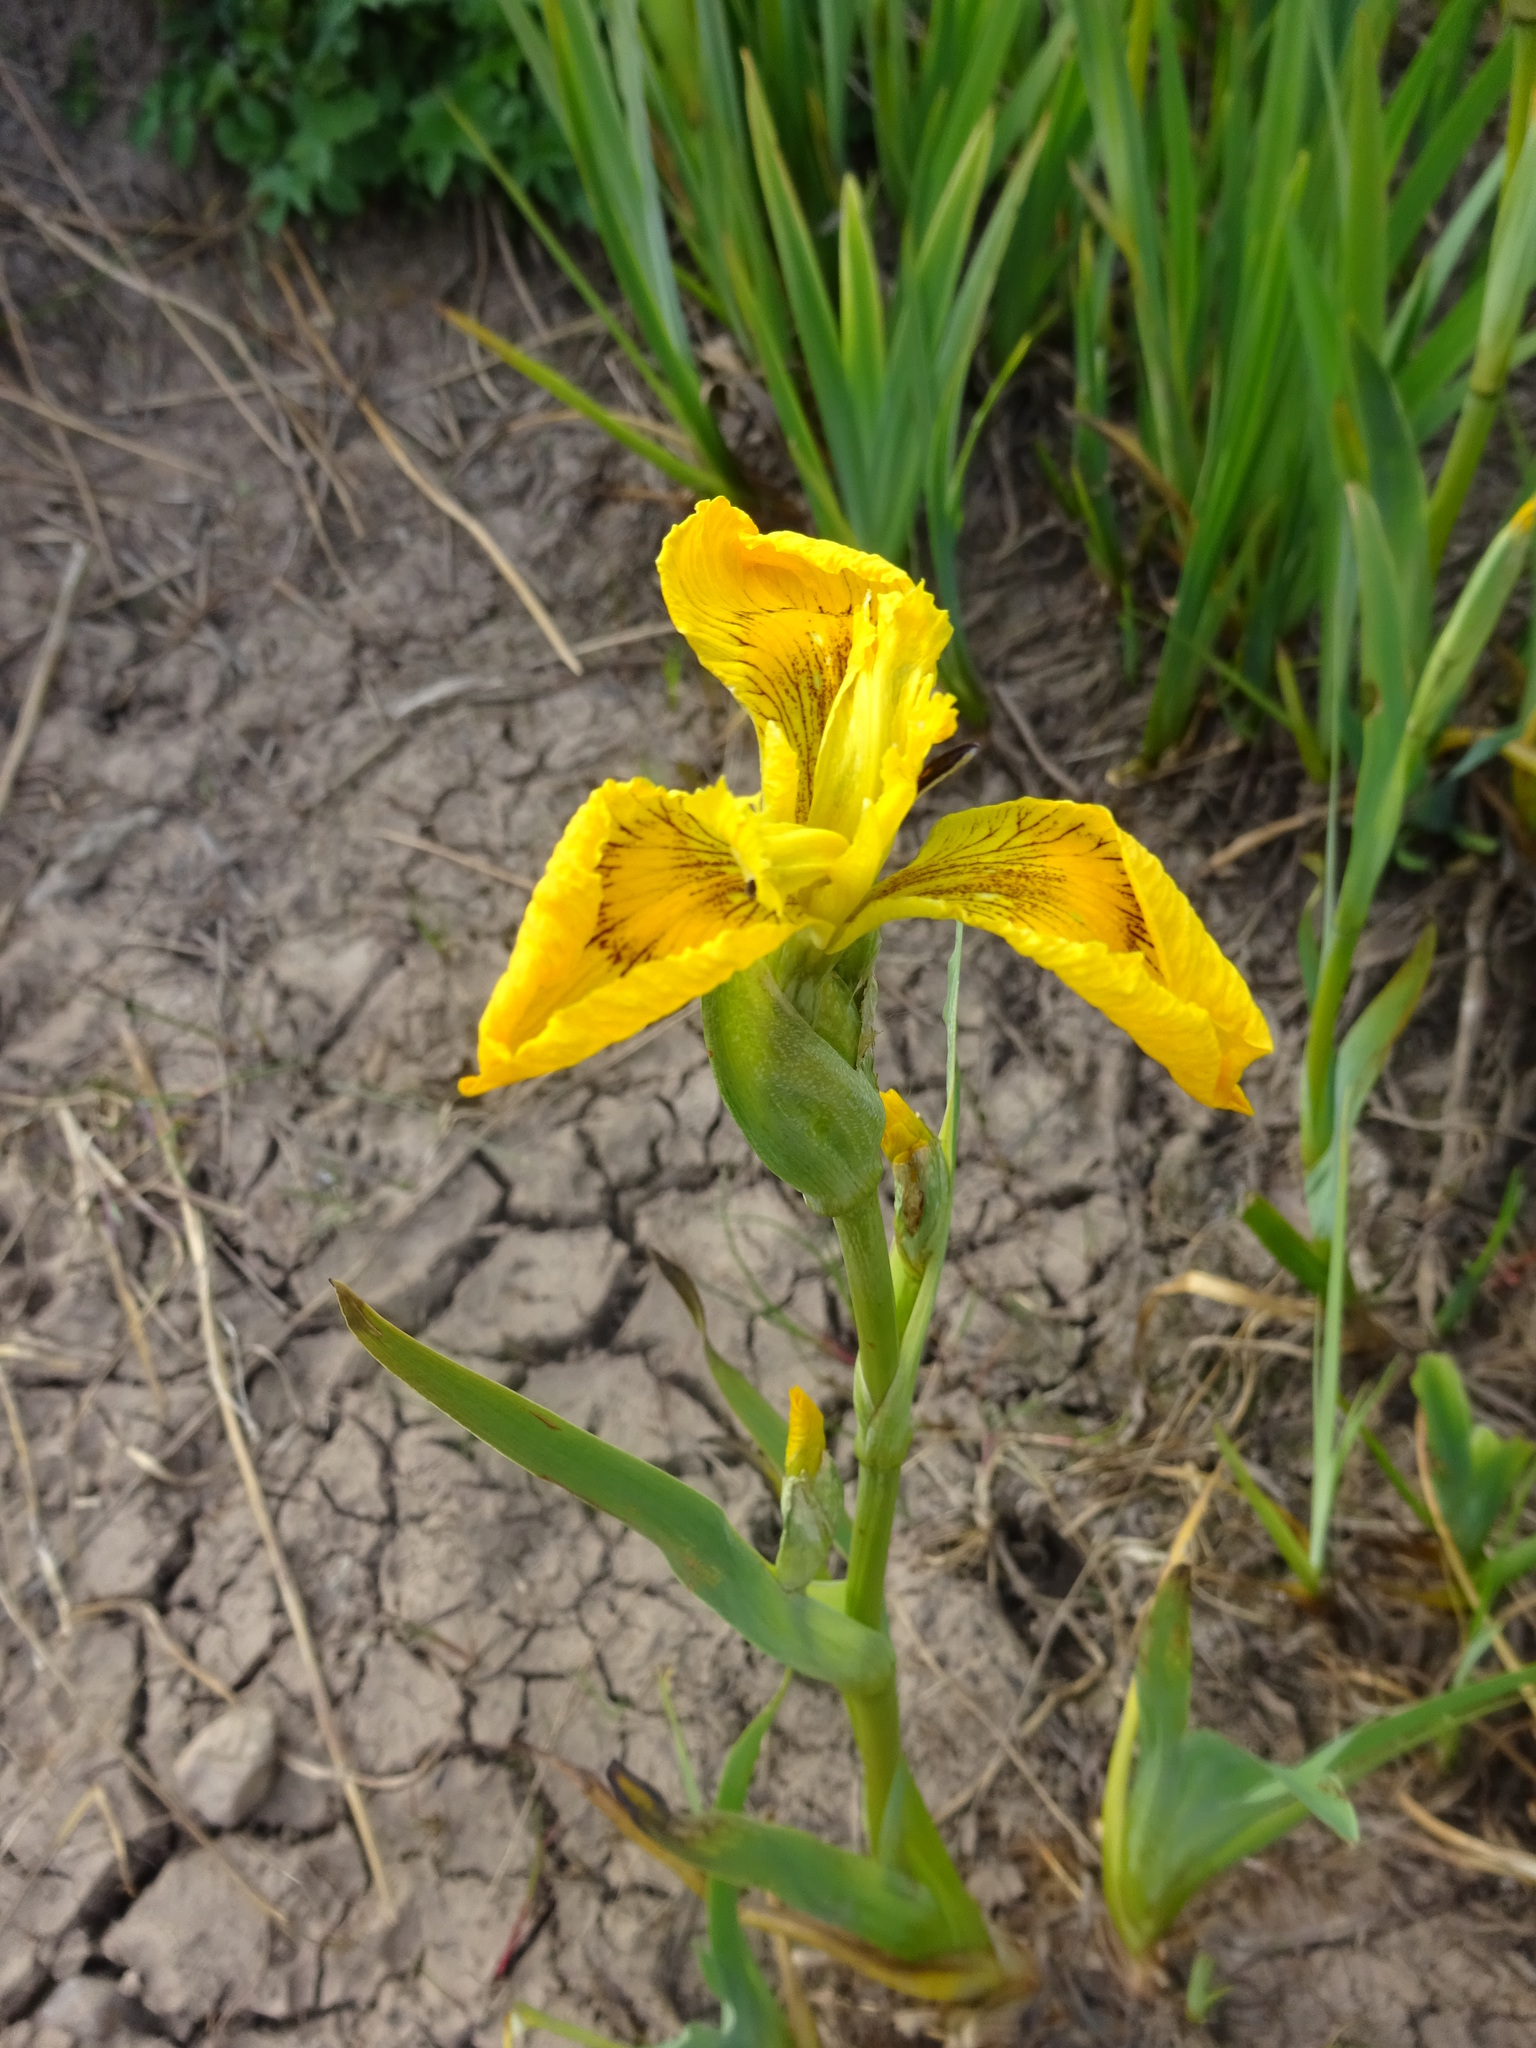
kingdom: Plantae
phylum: Tracheophyta
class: Liliopsida
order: Asparagales
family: Iridaceae
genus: Iris
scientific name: Iris pseudacorus
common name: Yellow flag
